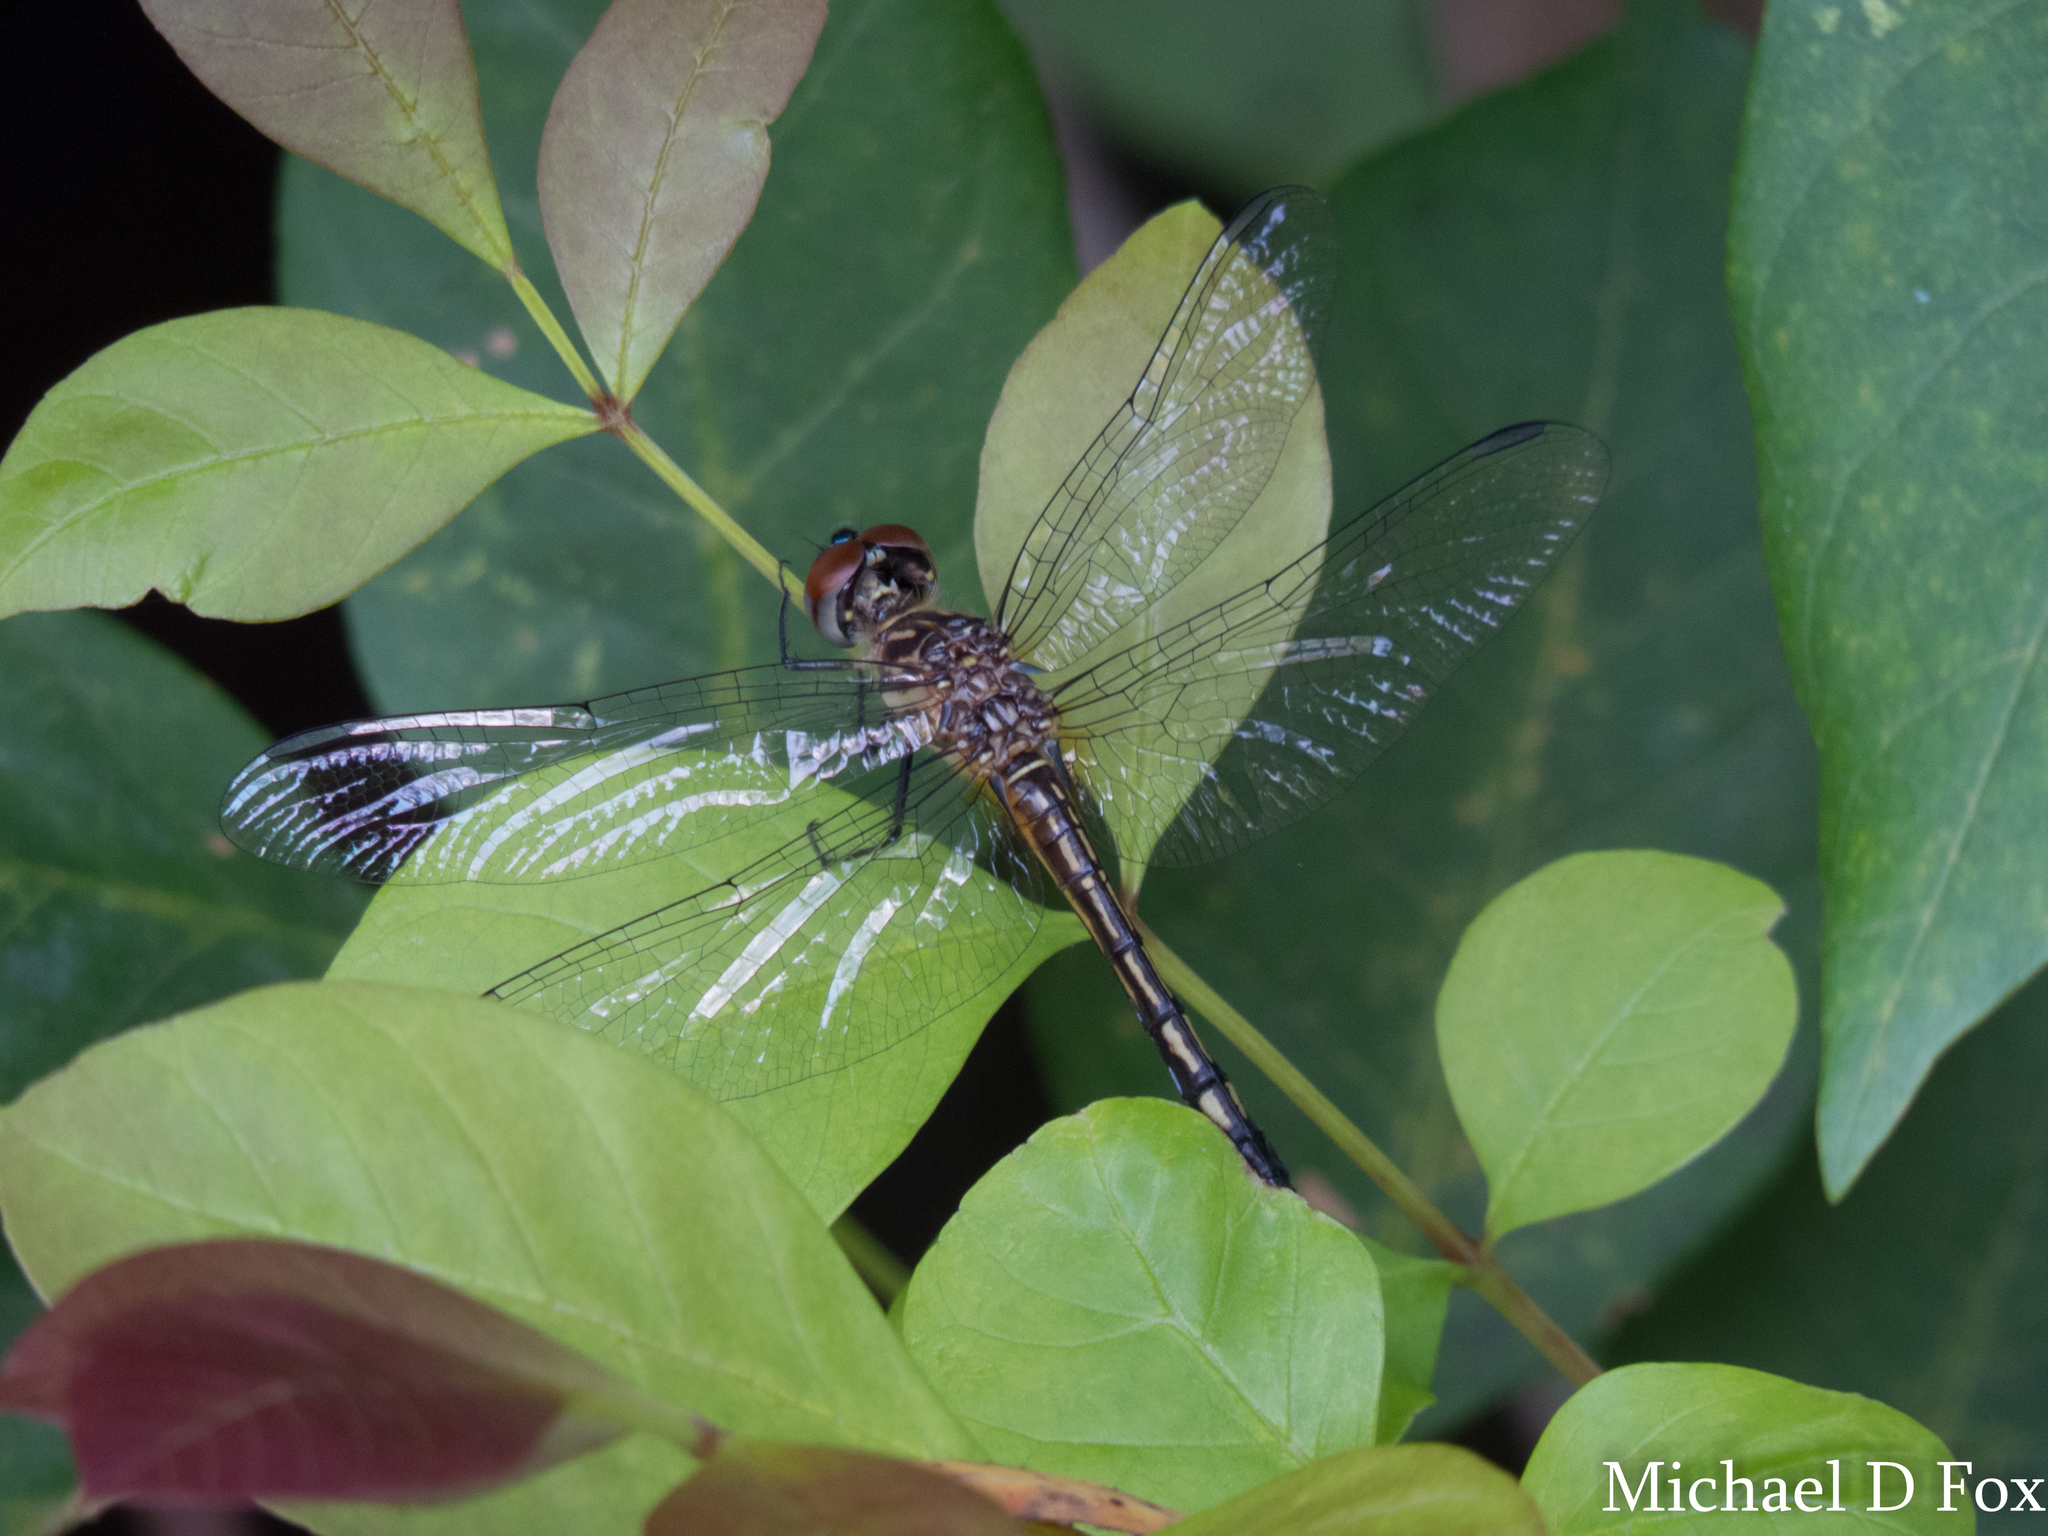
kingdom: Animalia
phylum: Arthropoda
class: Insecta
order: Odonata
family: Libellulidae
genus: Pachydiplax
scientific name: Pachydiplax longipennis
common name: Blue dasher
